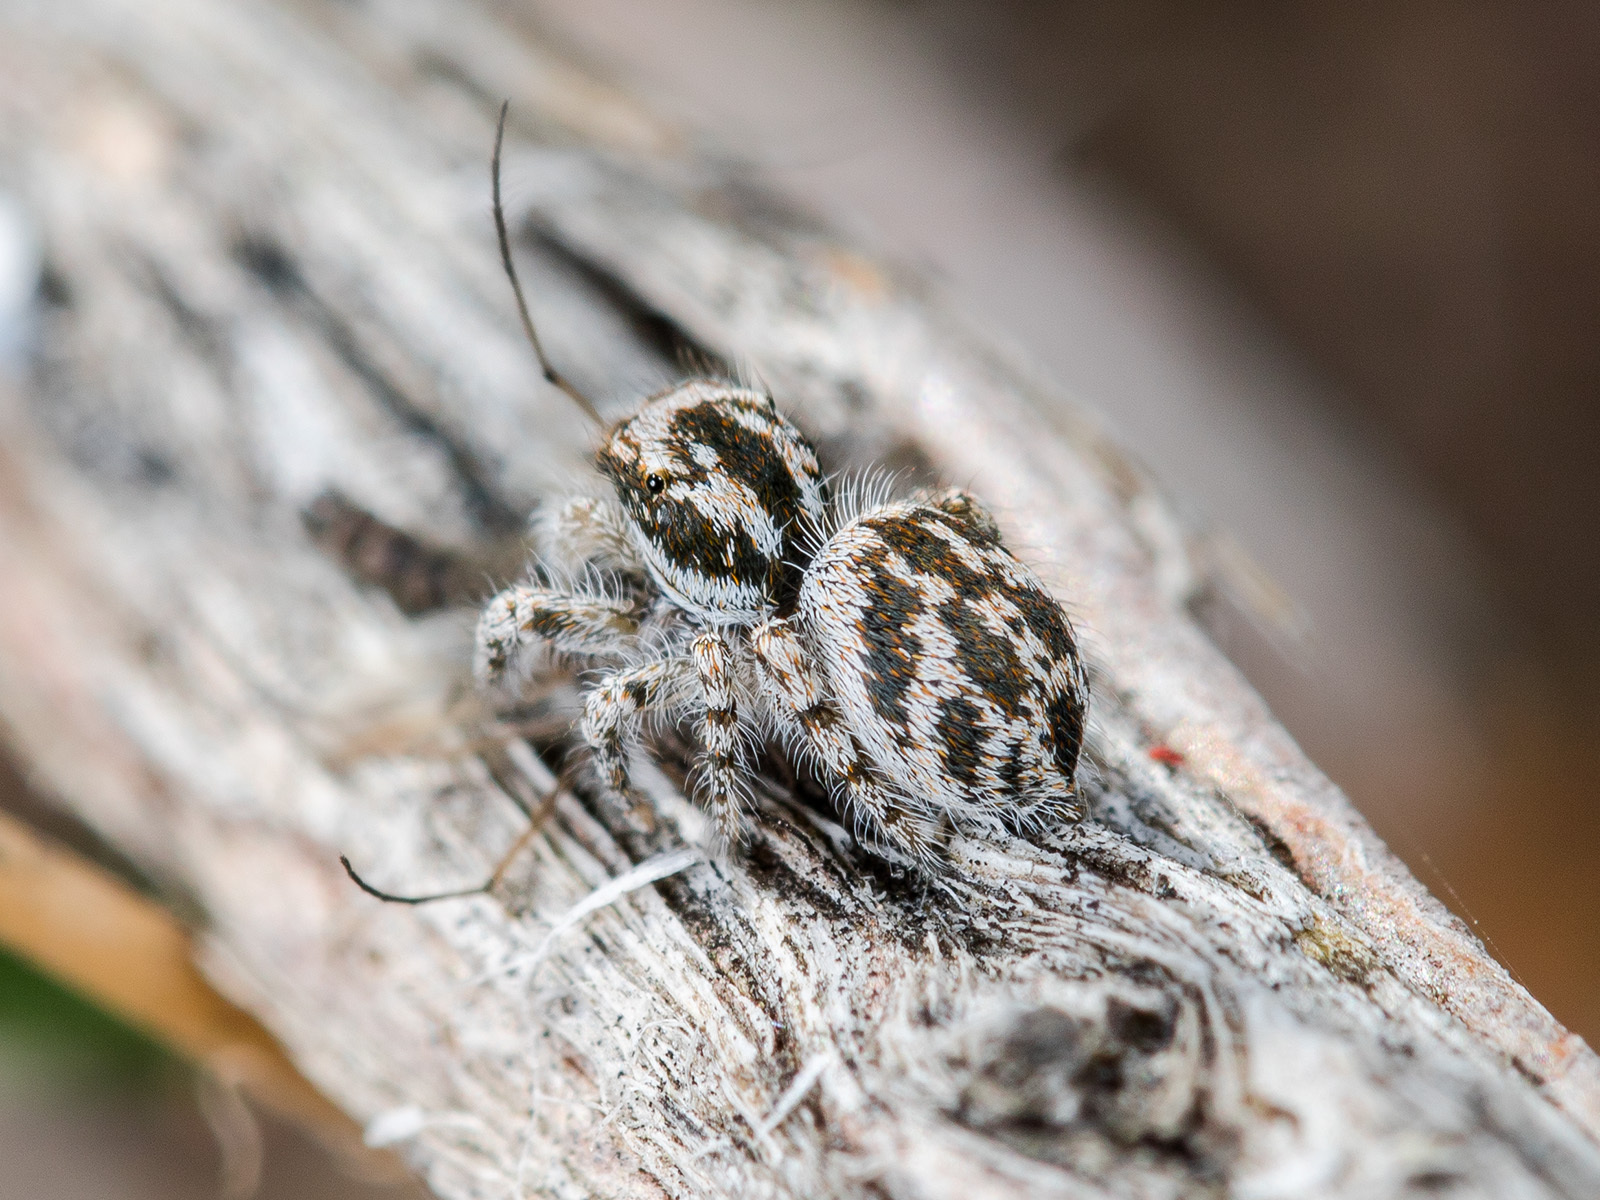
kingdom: Animalia
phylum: Arthropoda
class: Arachnida
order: Araneae
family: Salticidae
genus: Pseudomogrus
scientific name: Pseudomogrus dalaensis
